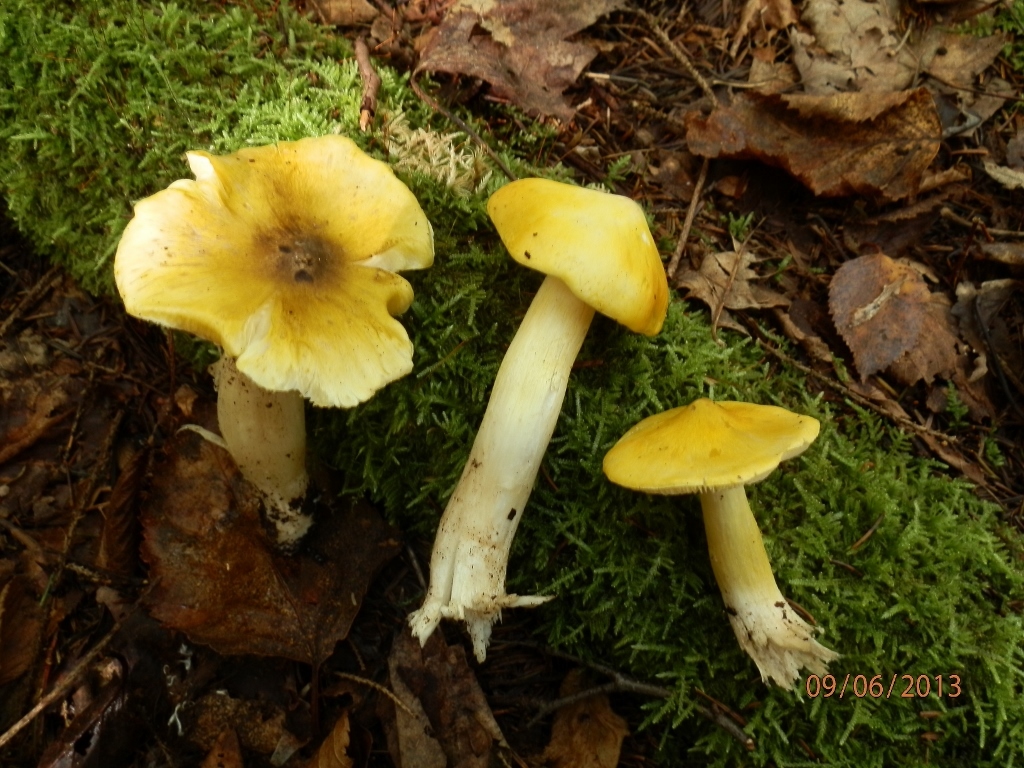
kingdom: Fungi
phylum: Basidiomycota
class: Agaricomycetes
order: Agaricales
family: Tricholomataceae
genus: Tricholoma
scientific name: Tricholoma subsejunctum
